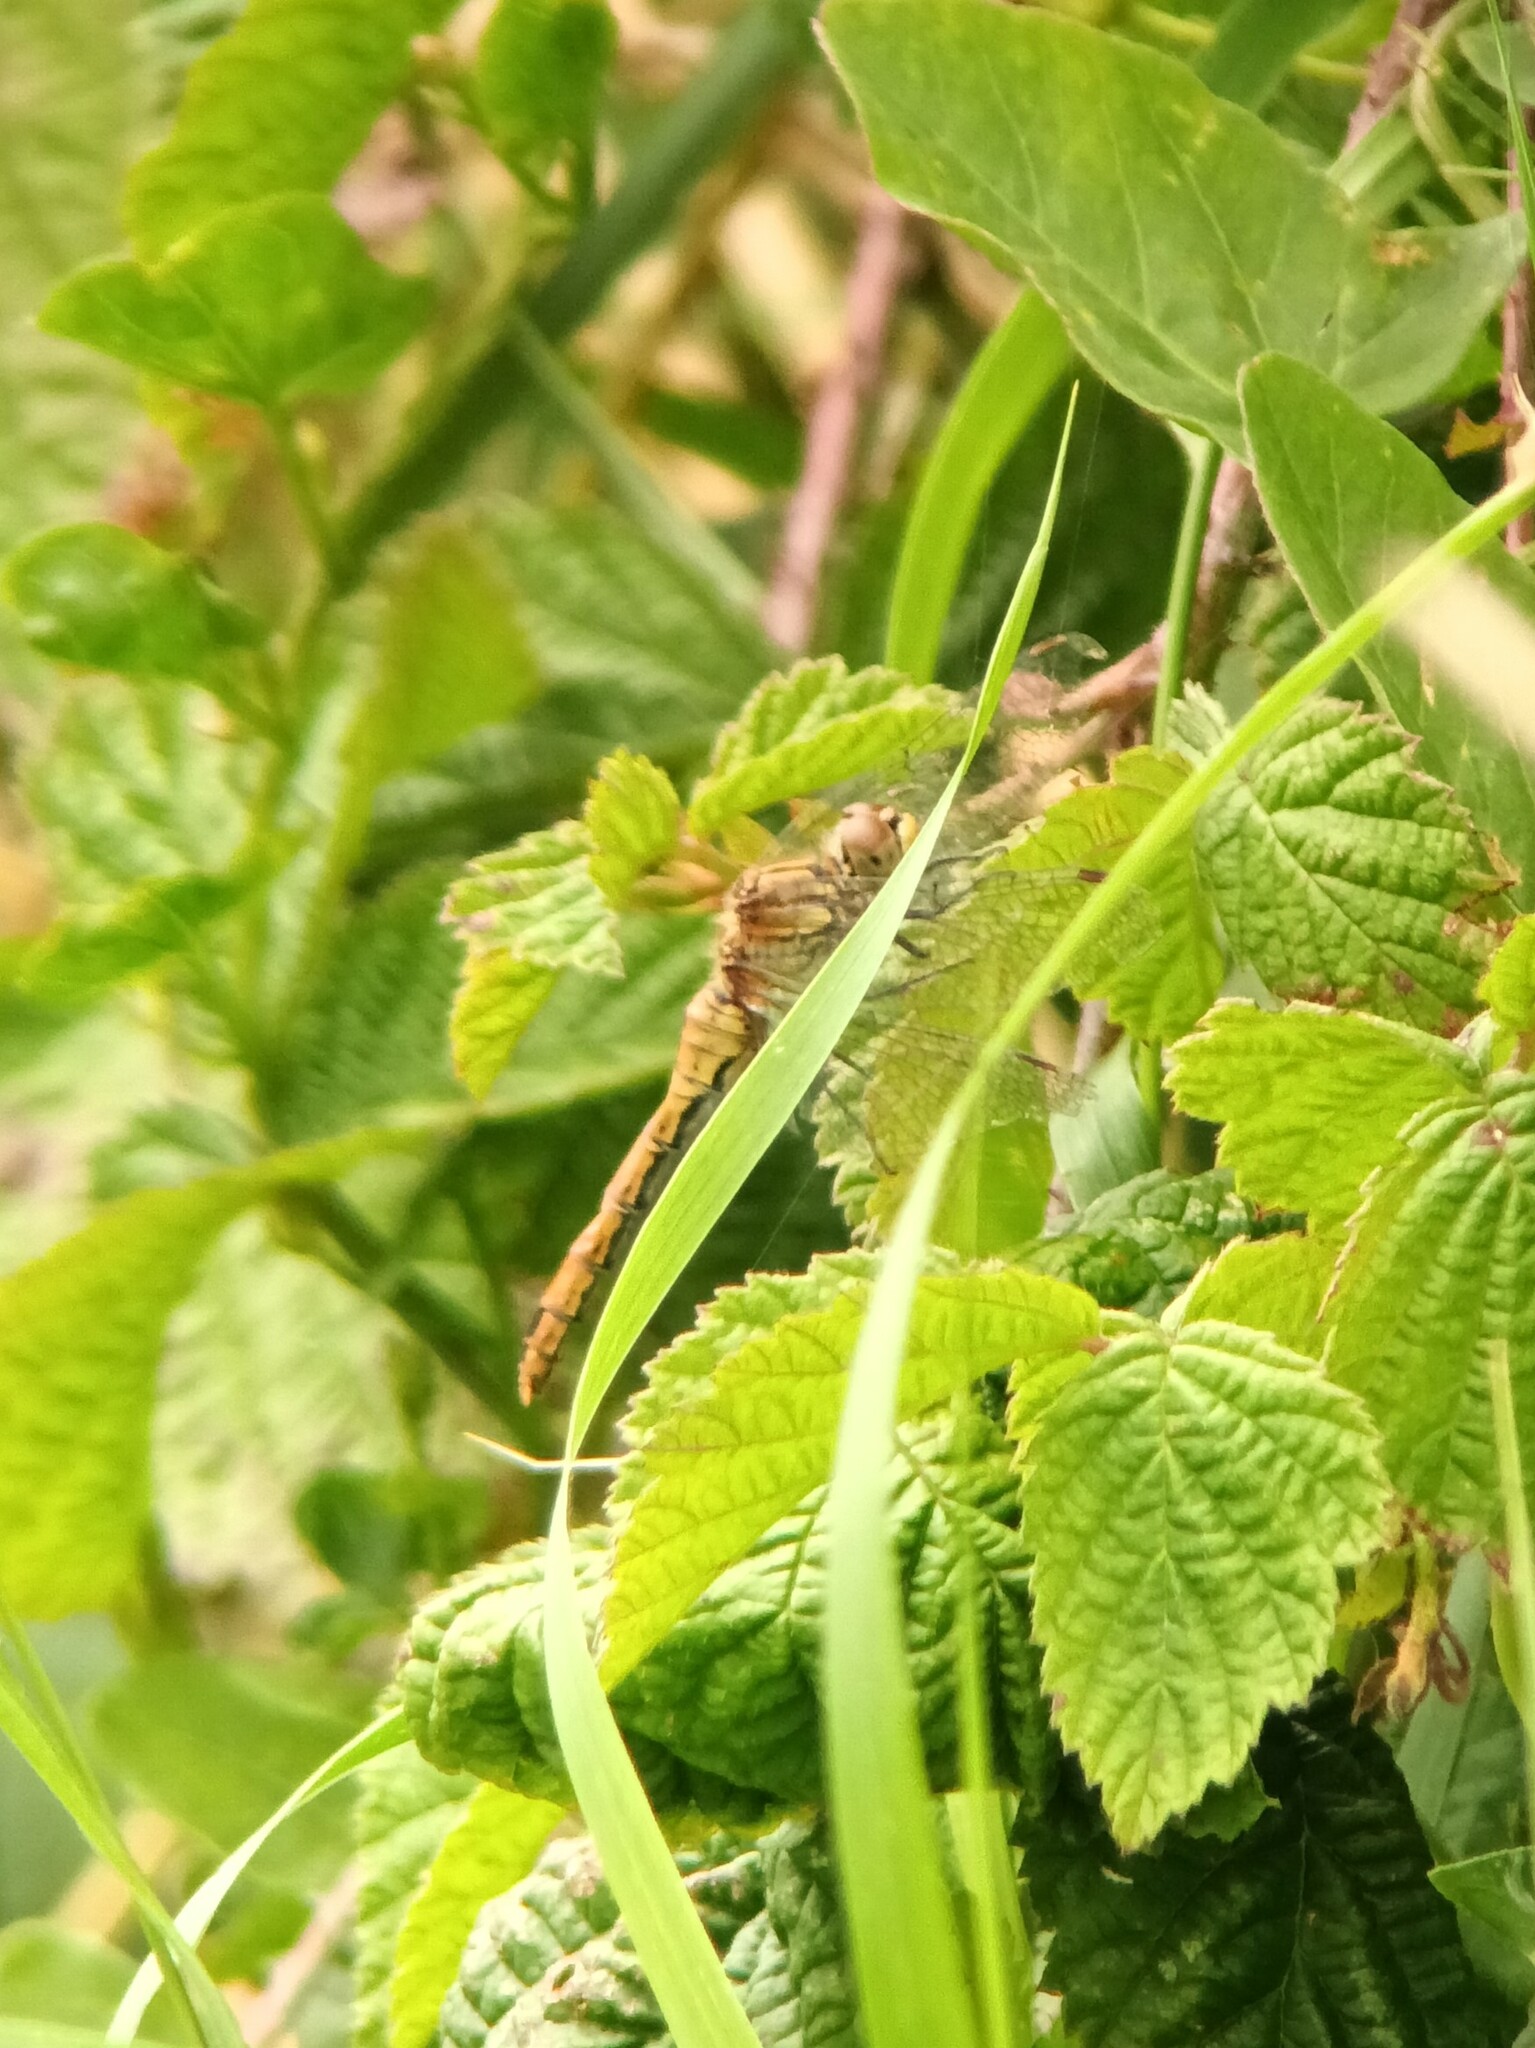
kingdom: Animalia
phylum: Arthropoda
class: Insecta
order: Odonata
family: Libellulidae
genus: Sympetrum
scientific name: Sympetrum sanguineum
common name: Ruddy darter
